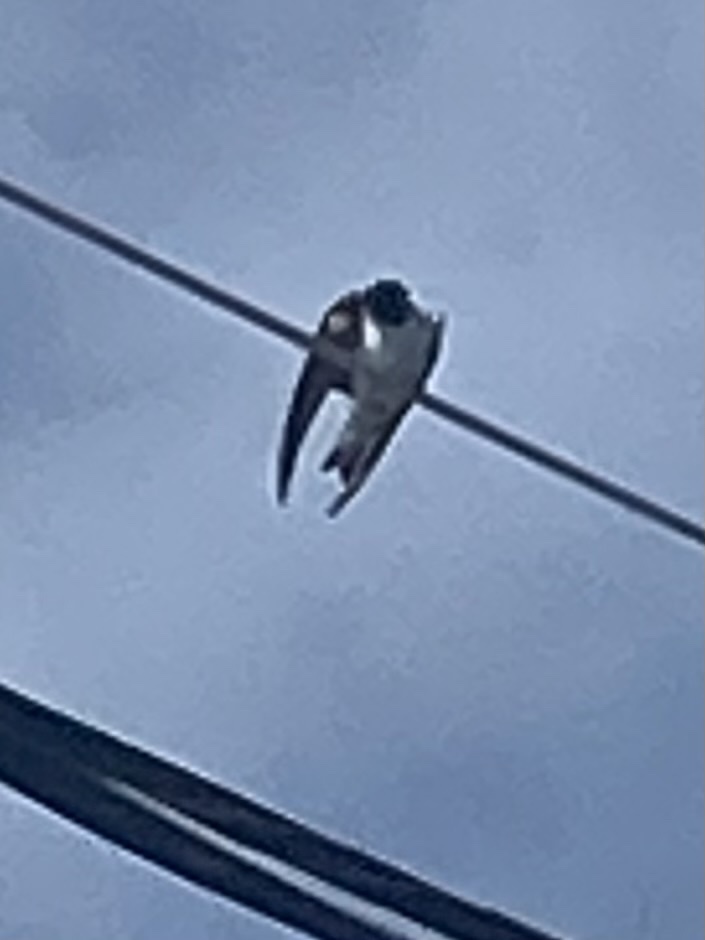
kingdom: Animalia
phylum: Chordata
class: Aves
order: Passeriformes
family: Hirundinidae
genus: Tachycineta
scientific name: Tachycineta thalassina
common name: Violet-green swallow
